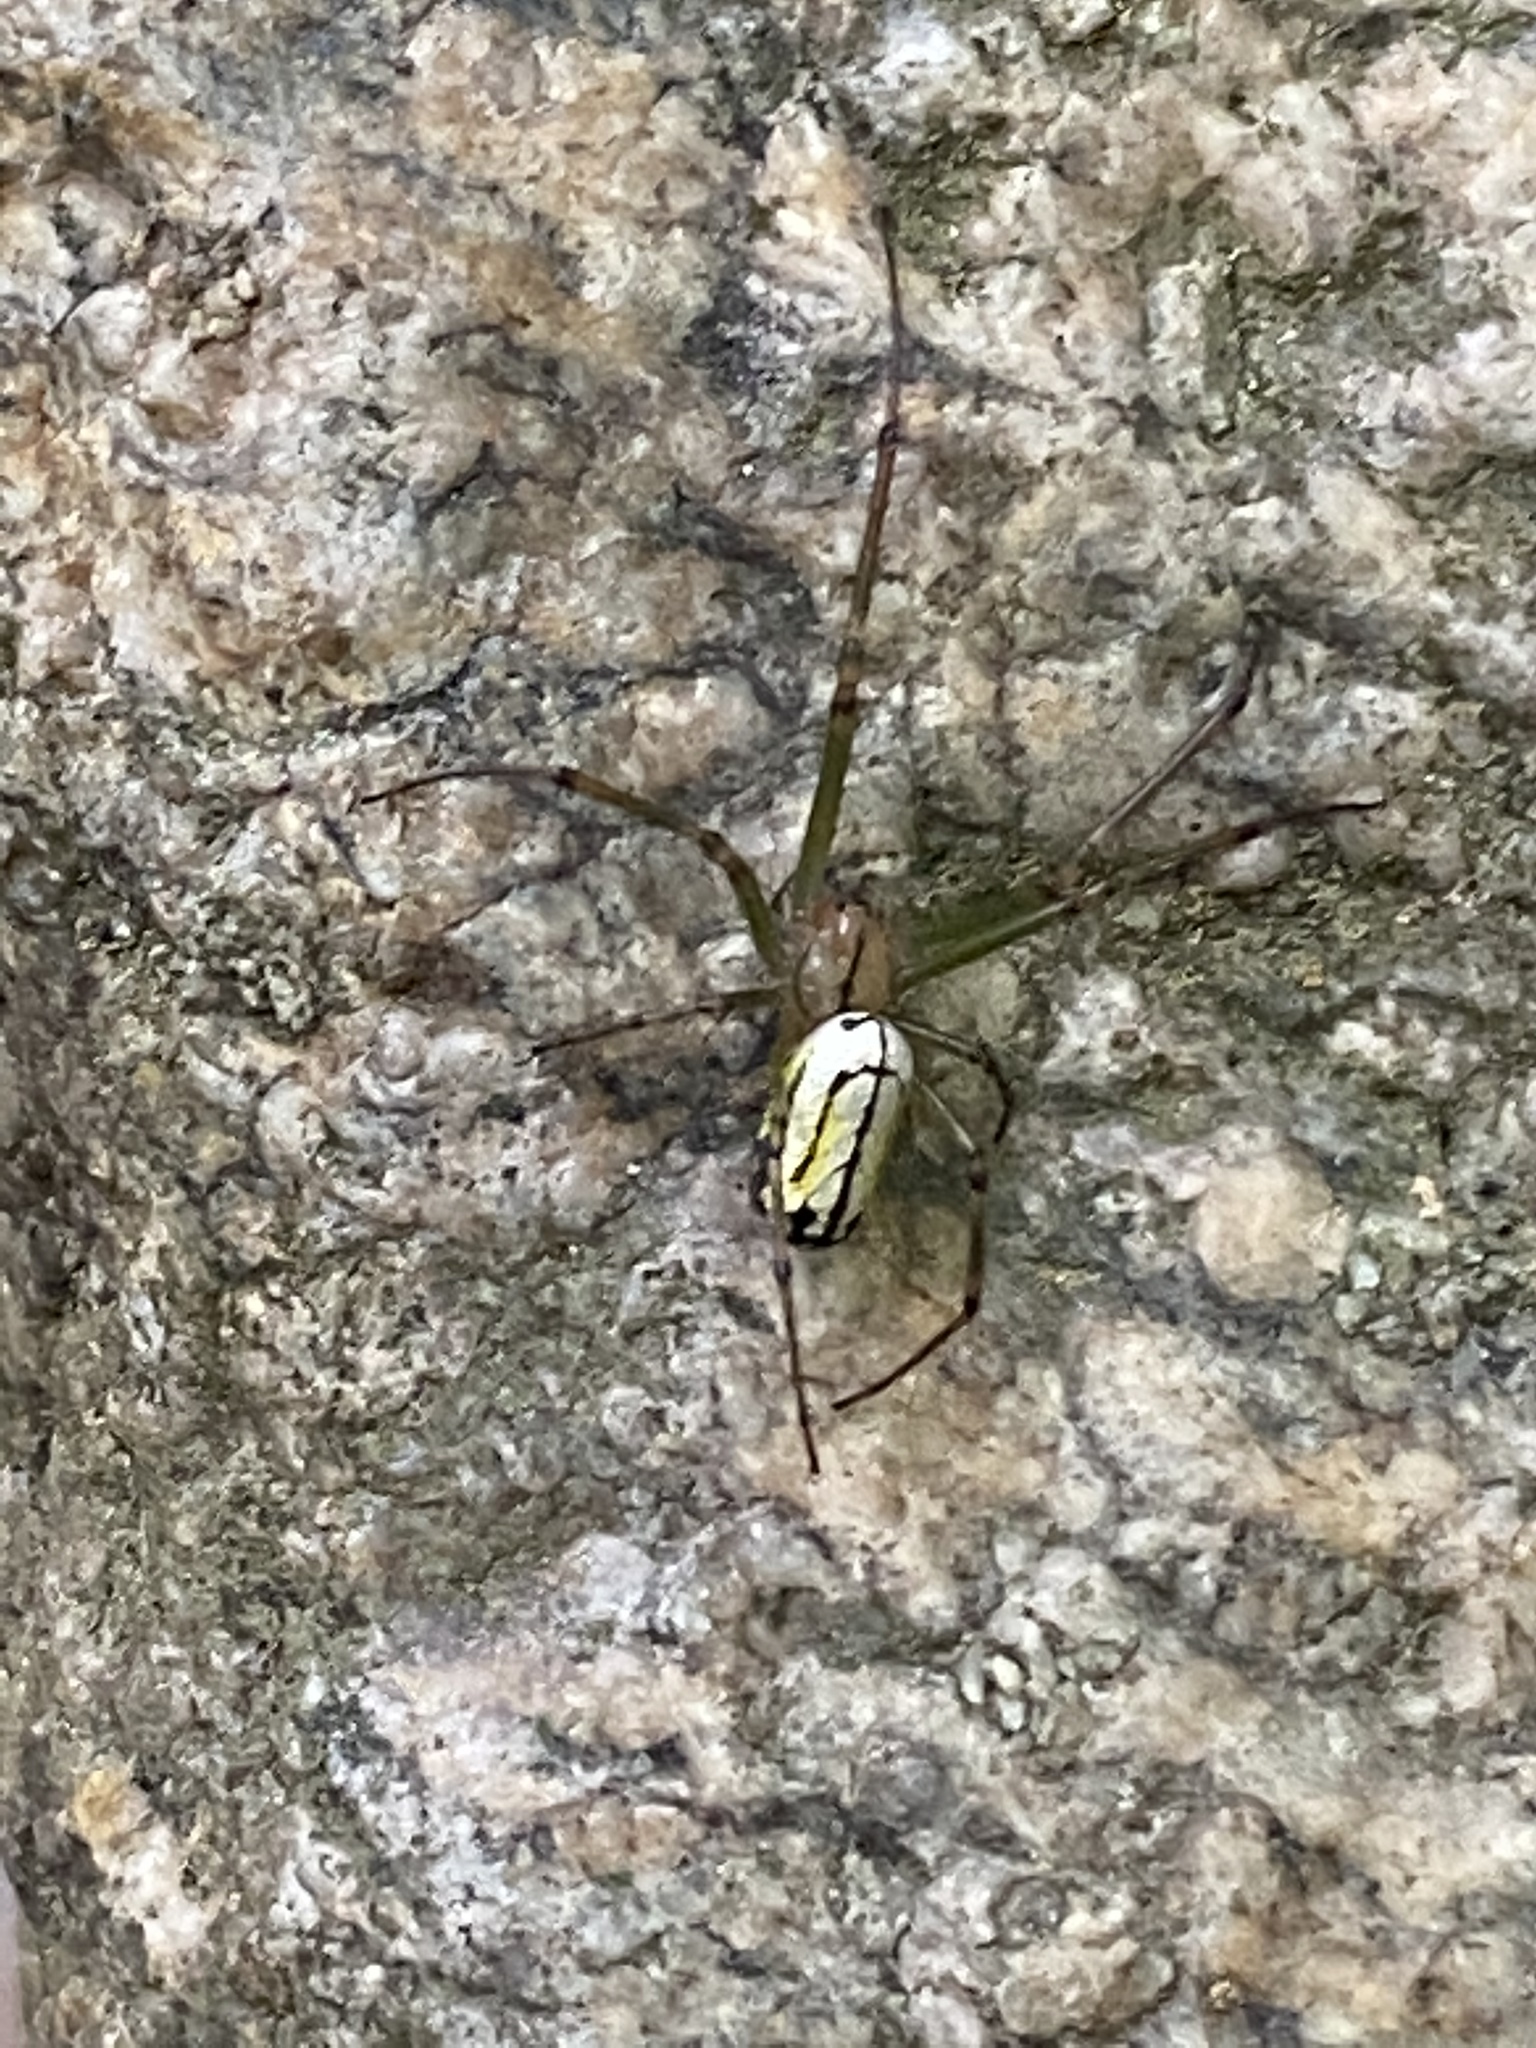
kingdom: Animalia
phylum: Arthropoda
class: Arachnida
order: Araneae
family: Tetragnathidae
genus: Leucauge
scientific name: Leucauge venusta
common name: Longjawed orb weavers
